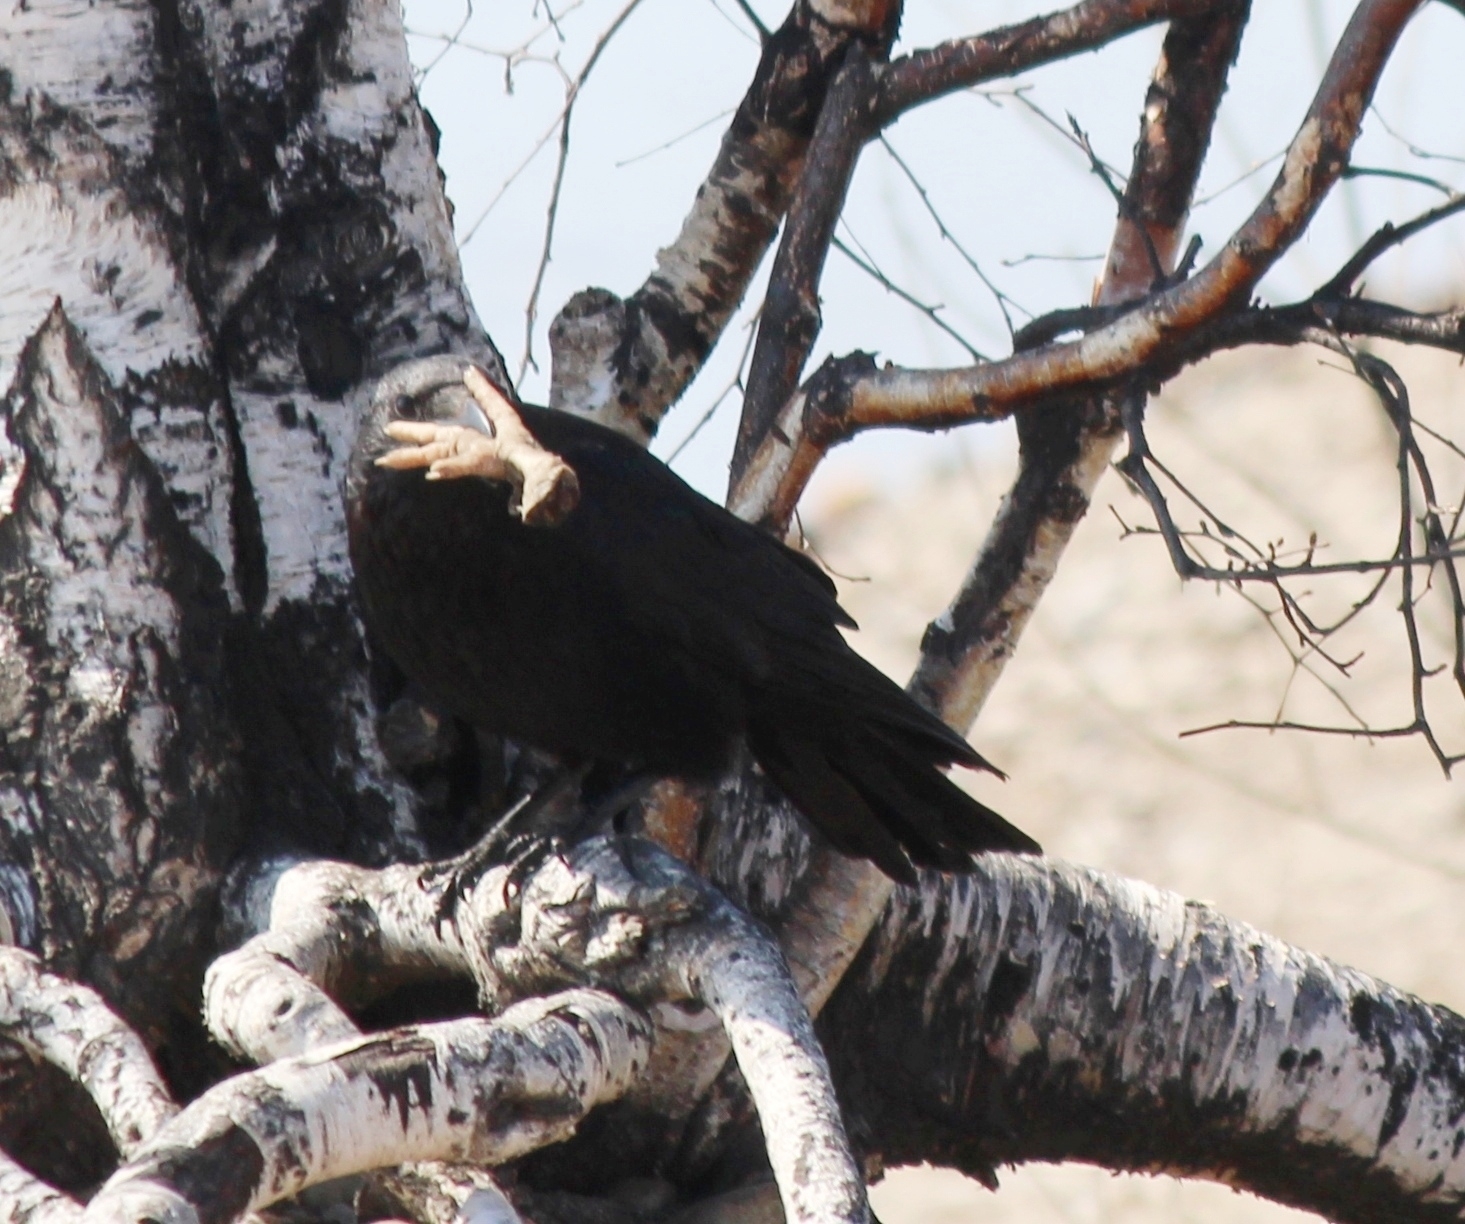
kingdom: Animalia
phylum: Chordata
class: Aves
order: Passeriformes
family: Corvidae
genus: Corvus
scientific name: Corvus corone
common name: Carrion crow
